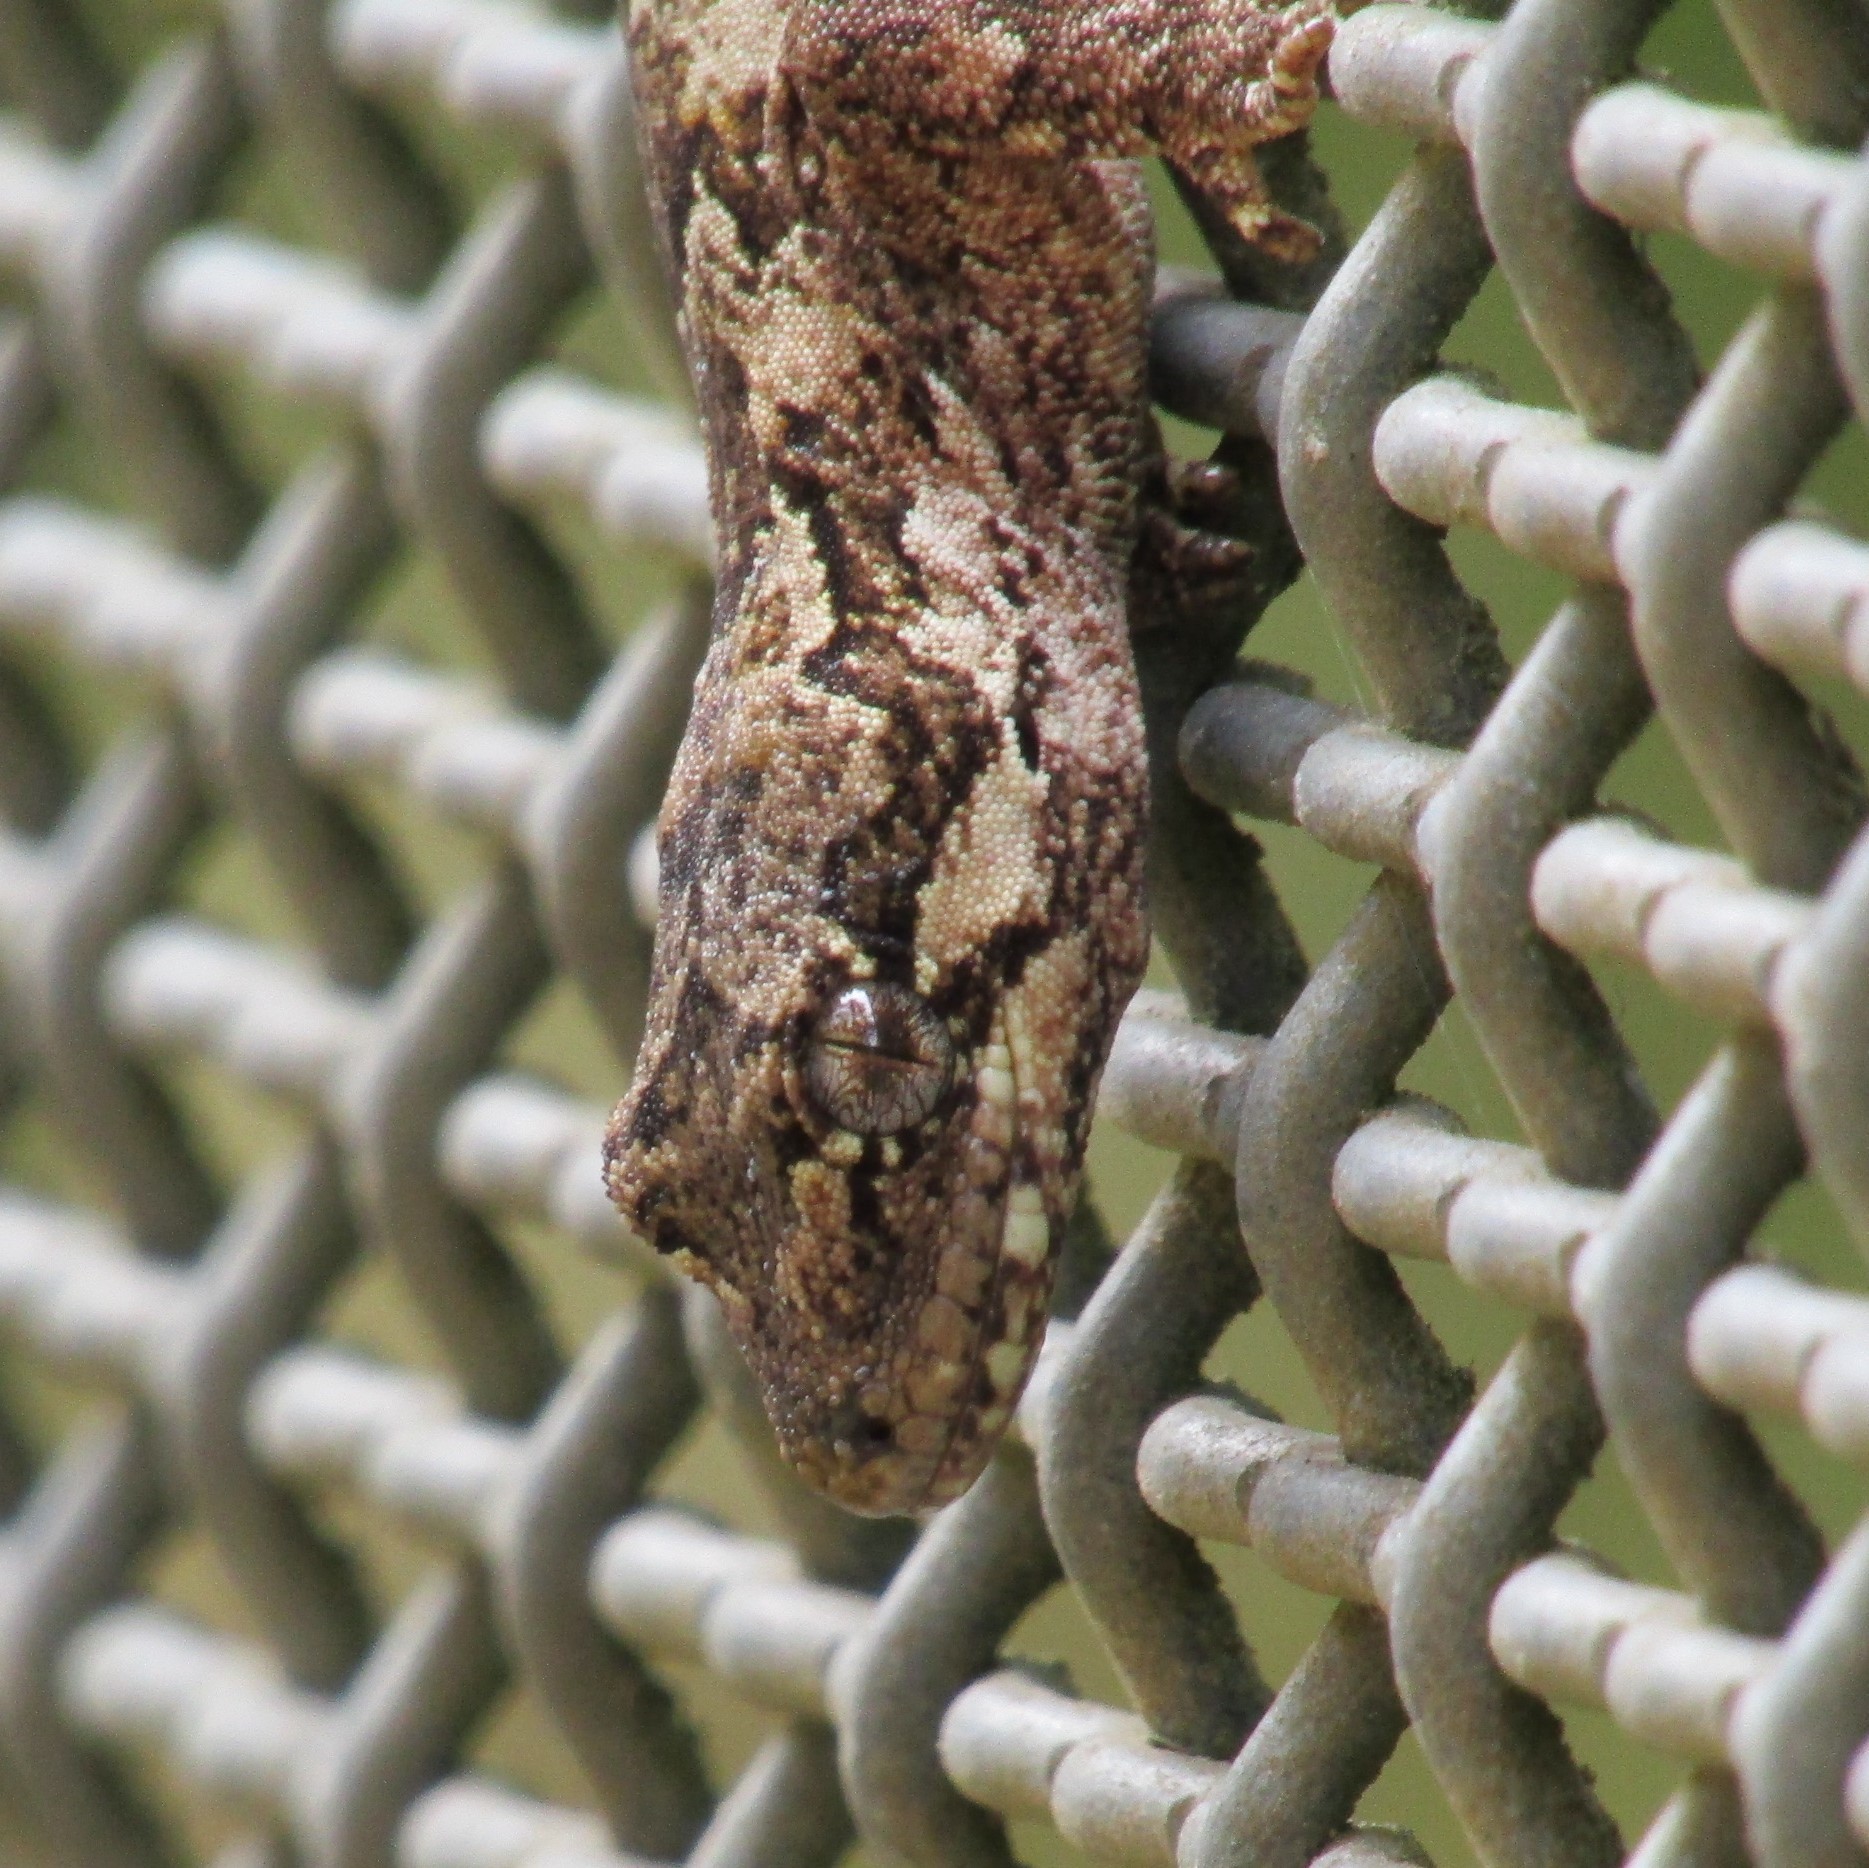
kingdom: Animalia
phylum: Chordata
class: Squamata
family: Diplodactylidae
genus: Mokopirirakau
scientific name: Mokopirirakau
